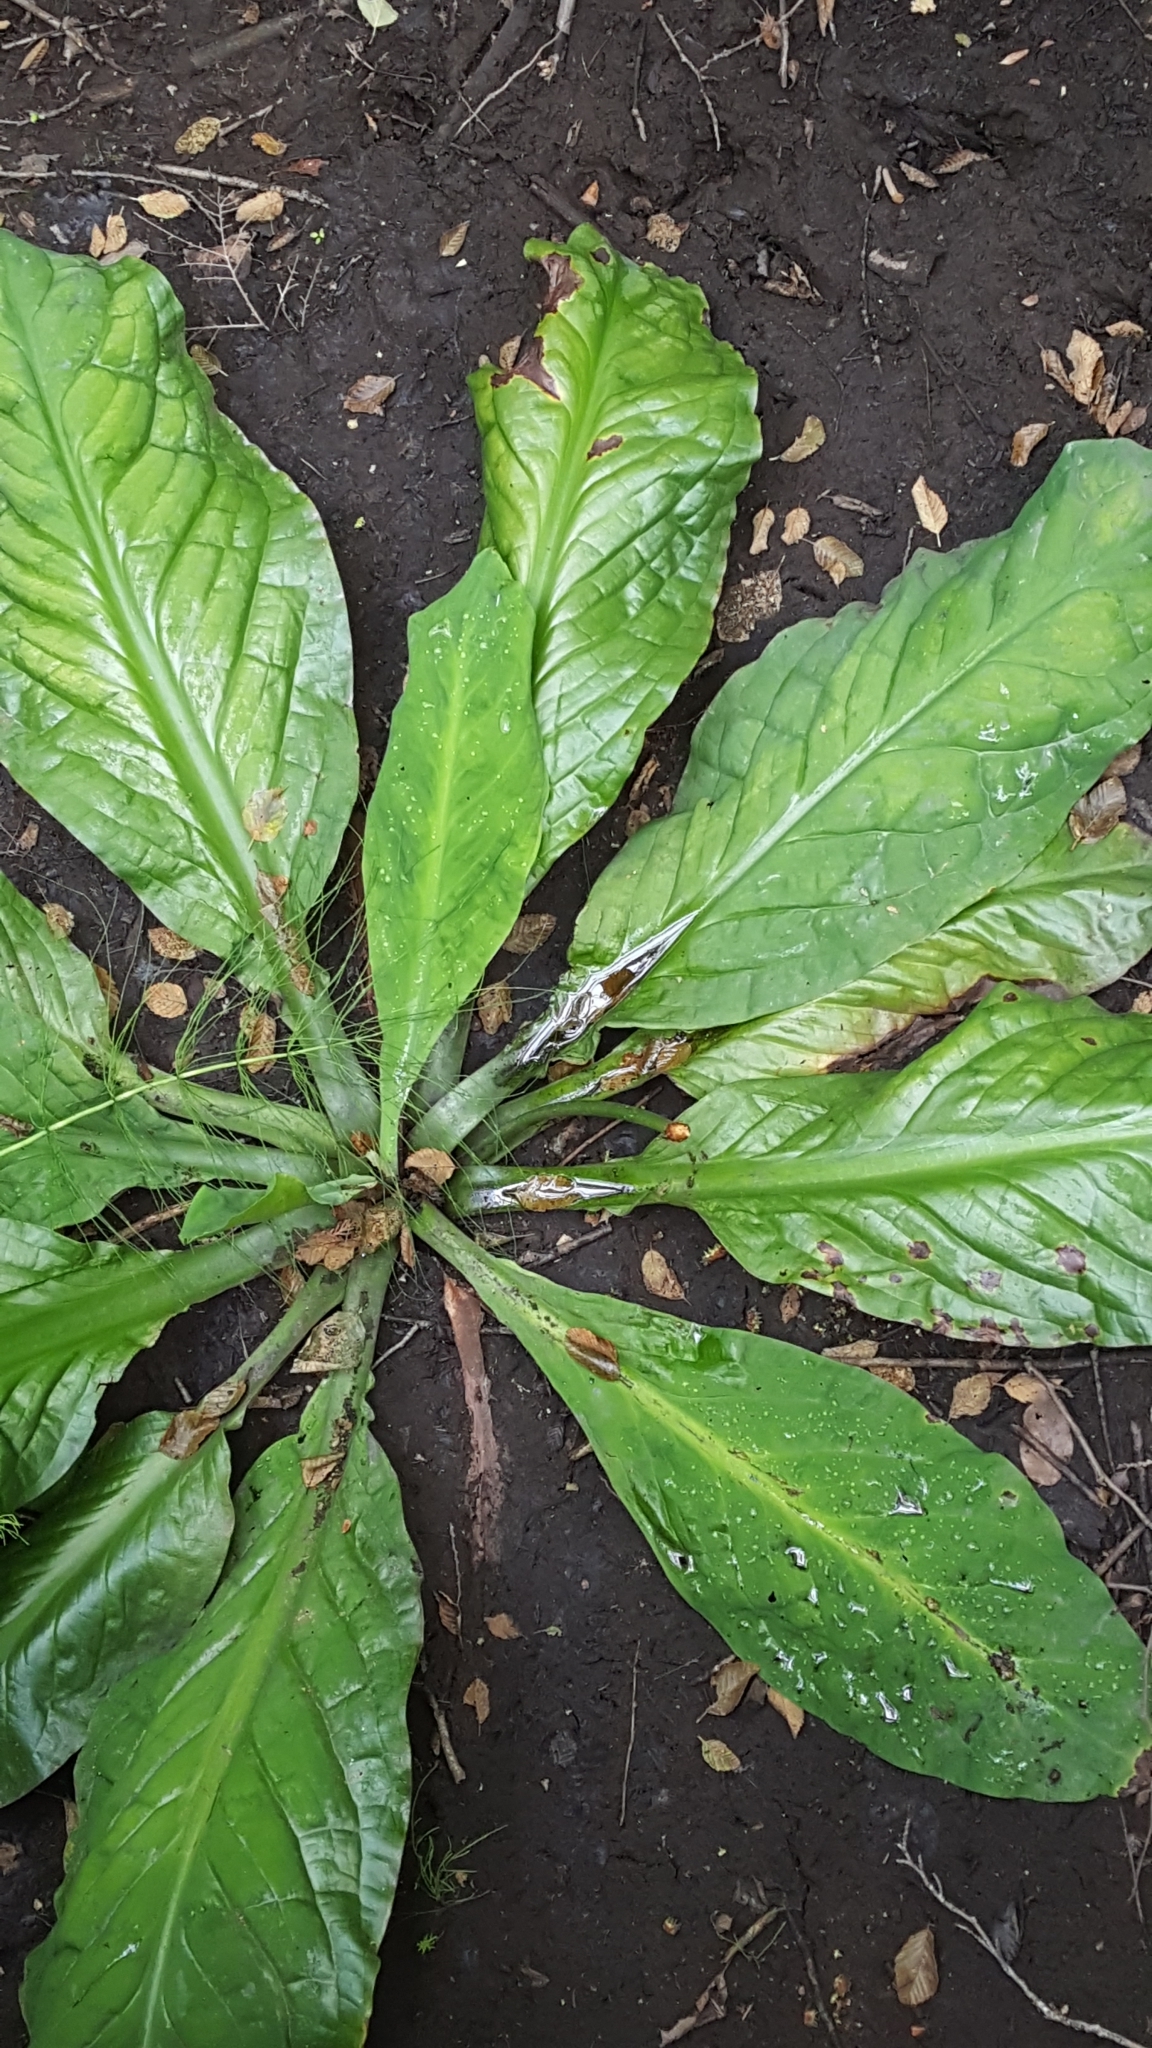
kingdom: Plantae
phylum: Tracheophyta
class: Liliopsida
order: Alismatales
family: Araceae
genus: Lysichiton
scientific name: Lysichiton americanus
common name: American skunk cabbage
